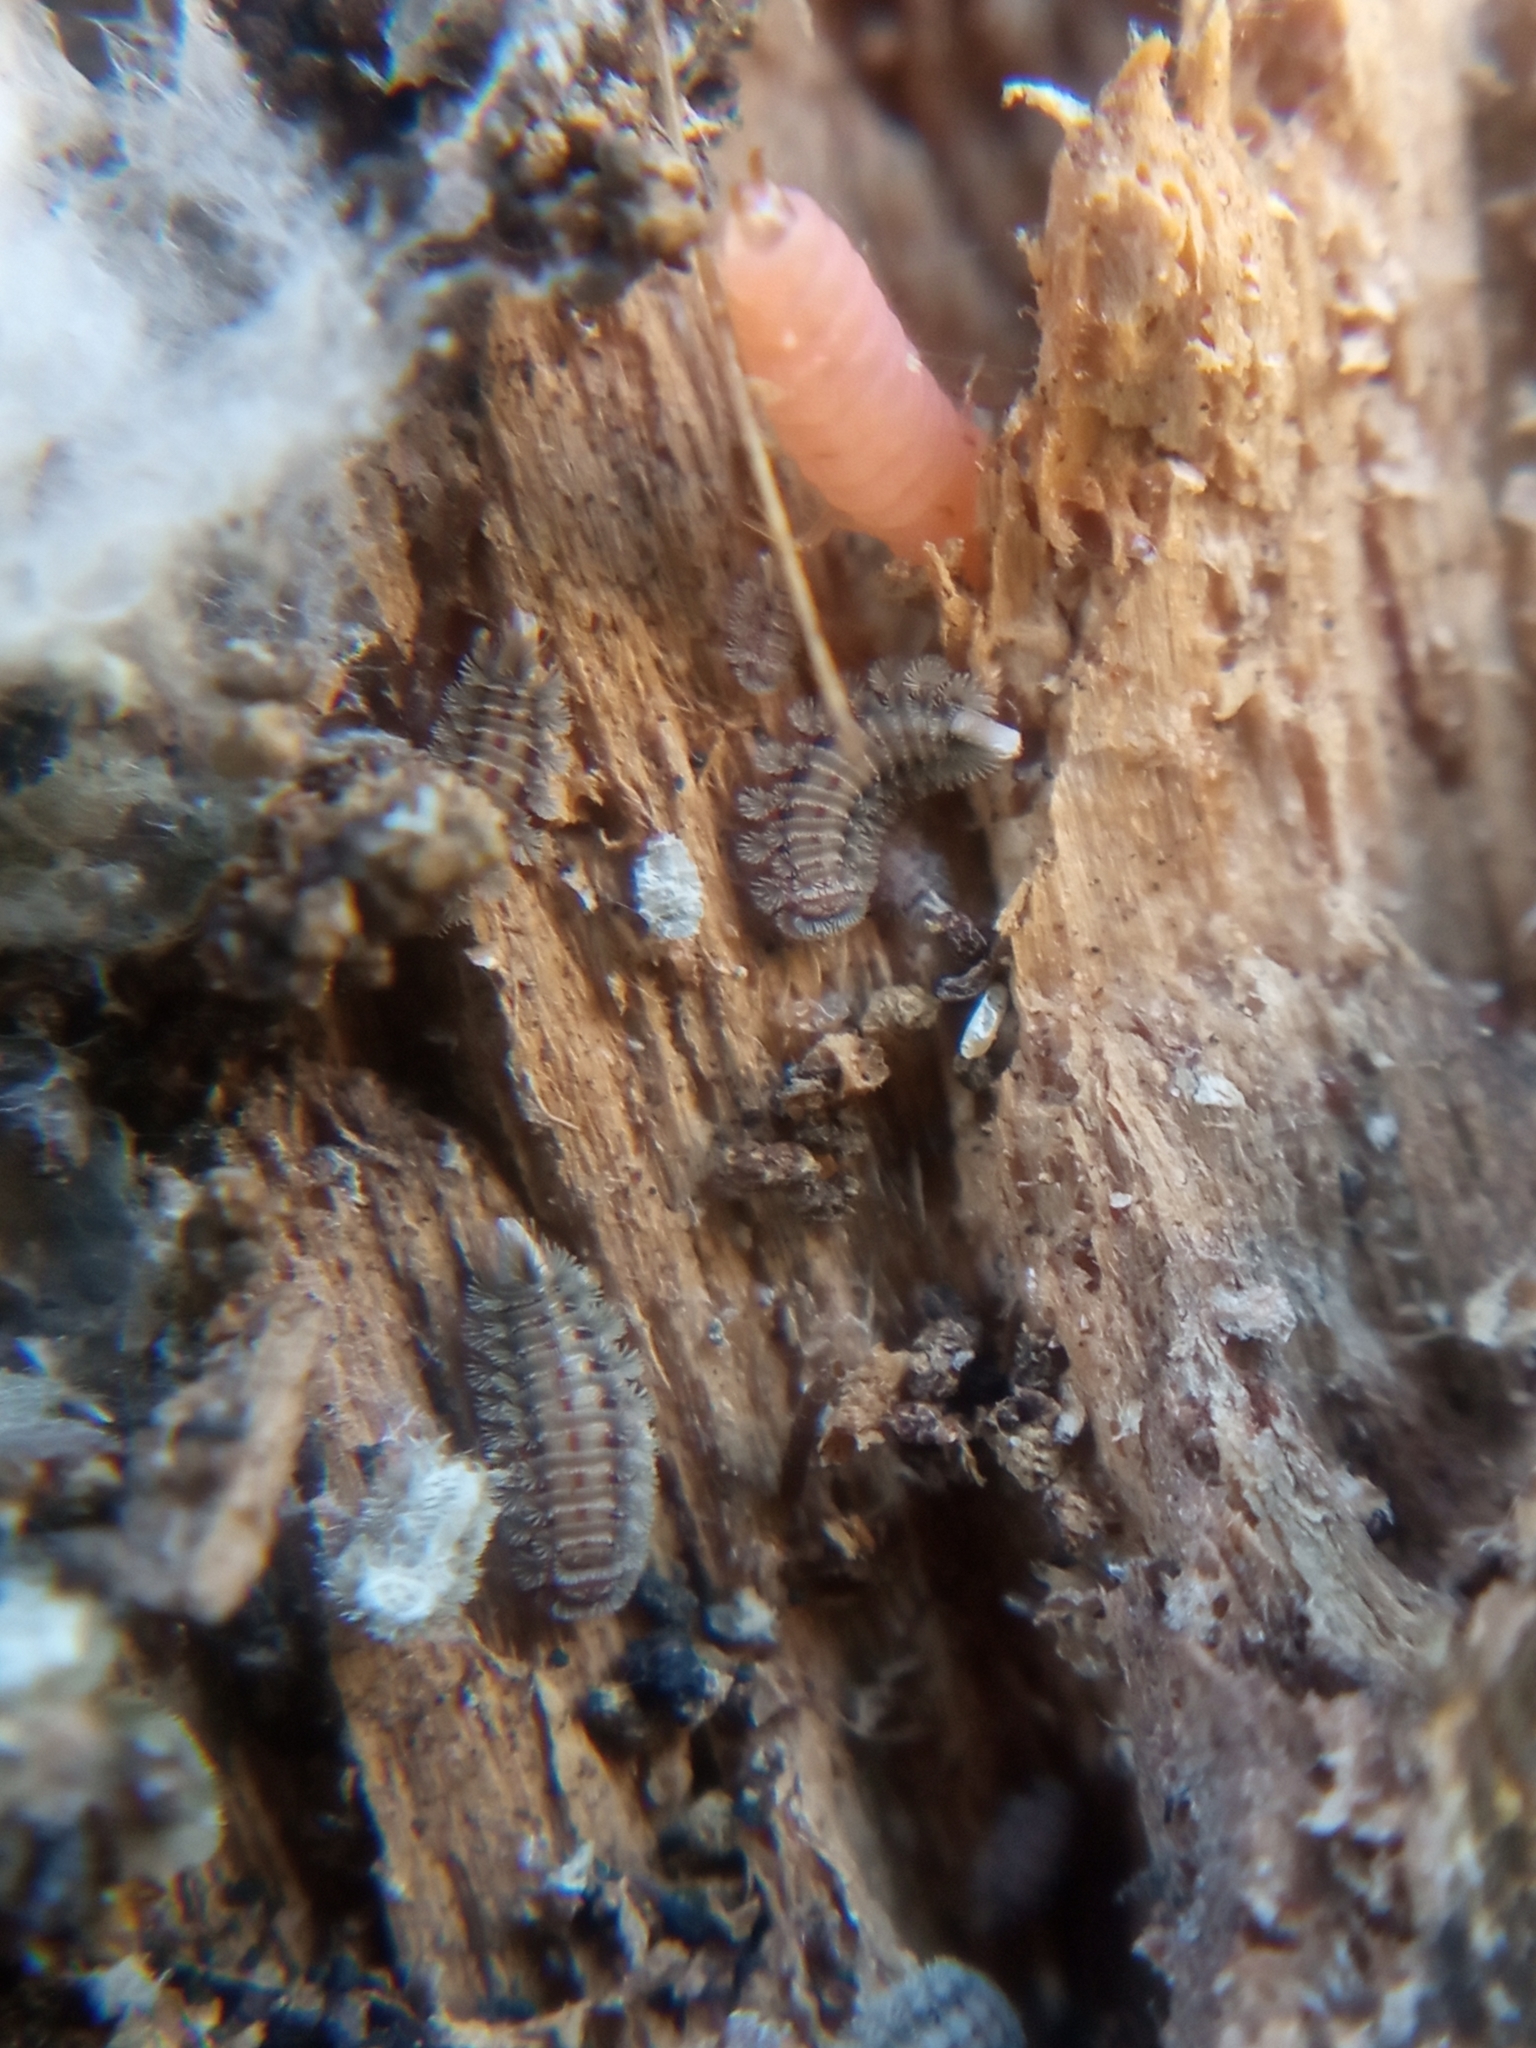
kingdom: Animalia
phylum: Arthropoda
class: Diplopoda
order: Polyxenida
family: Polyxenidae
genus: Polyxenus
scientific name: Polyxenus lagurus
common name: Bristly millipede
